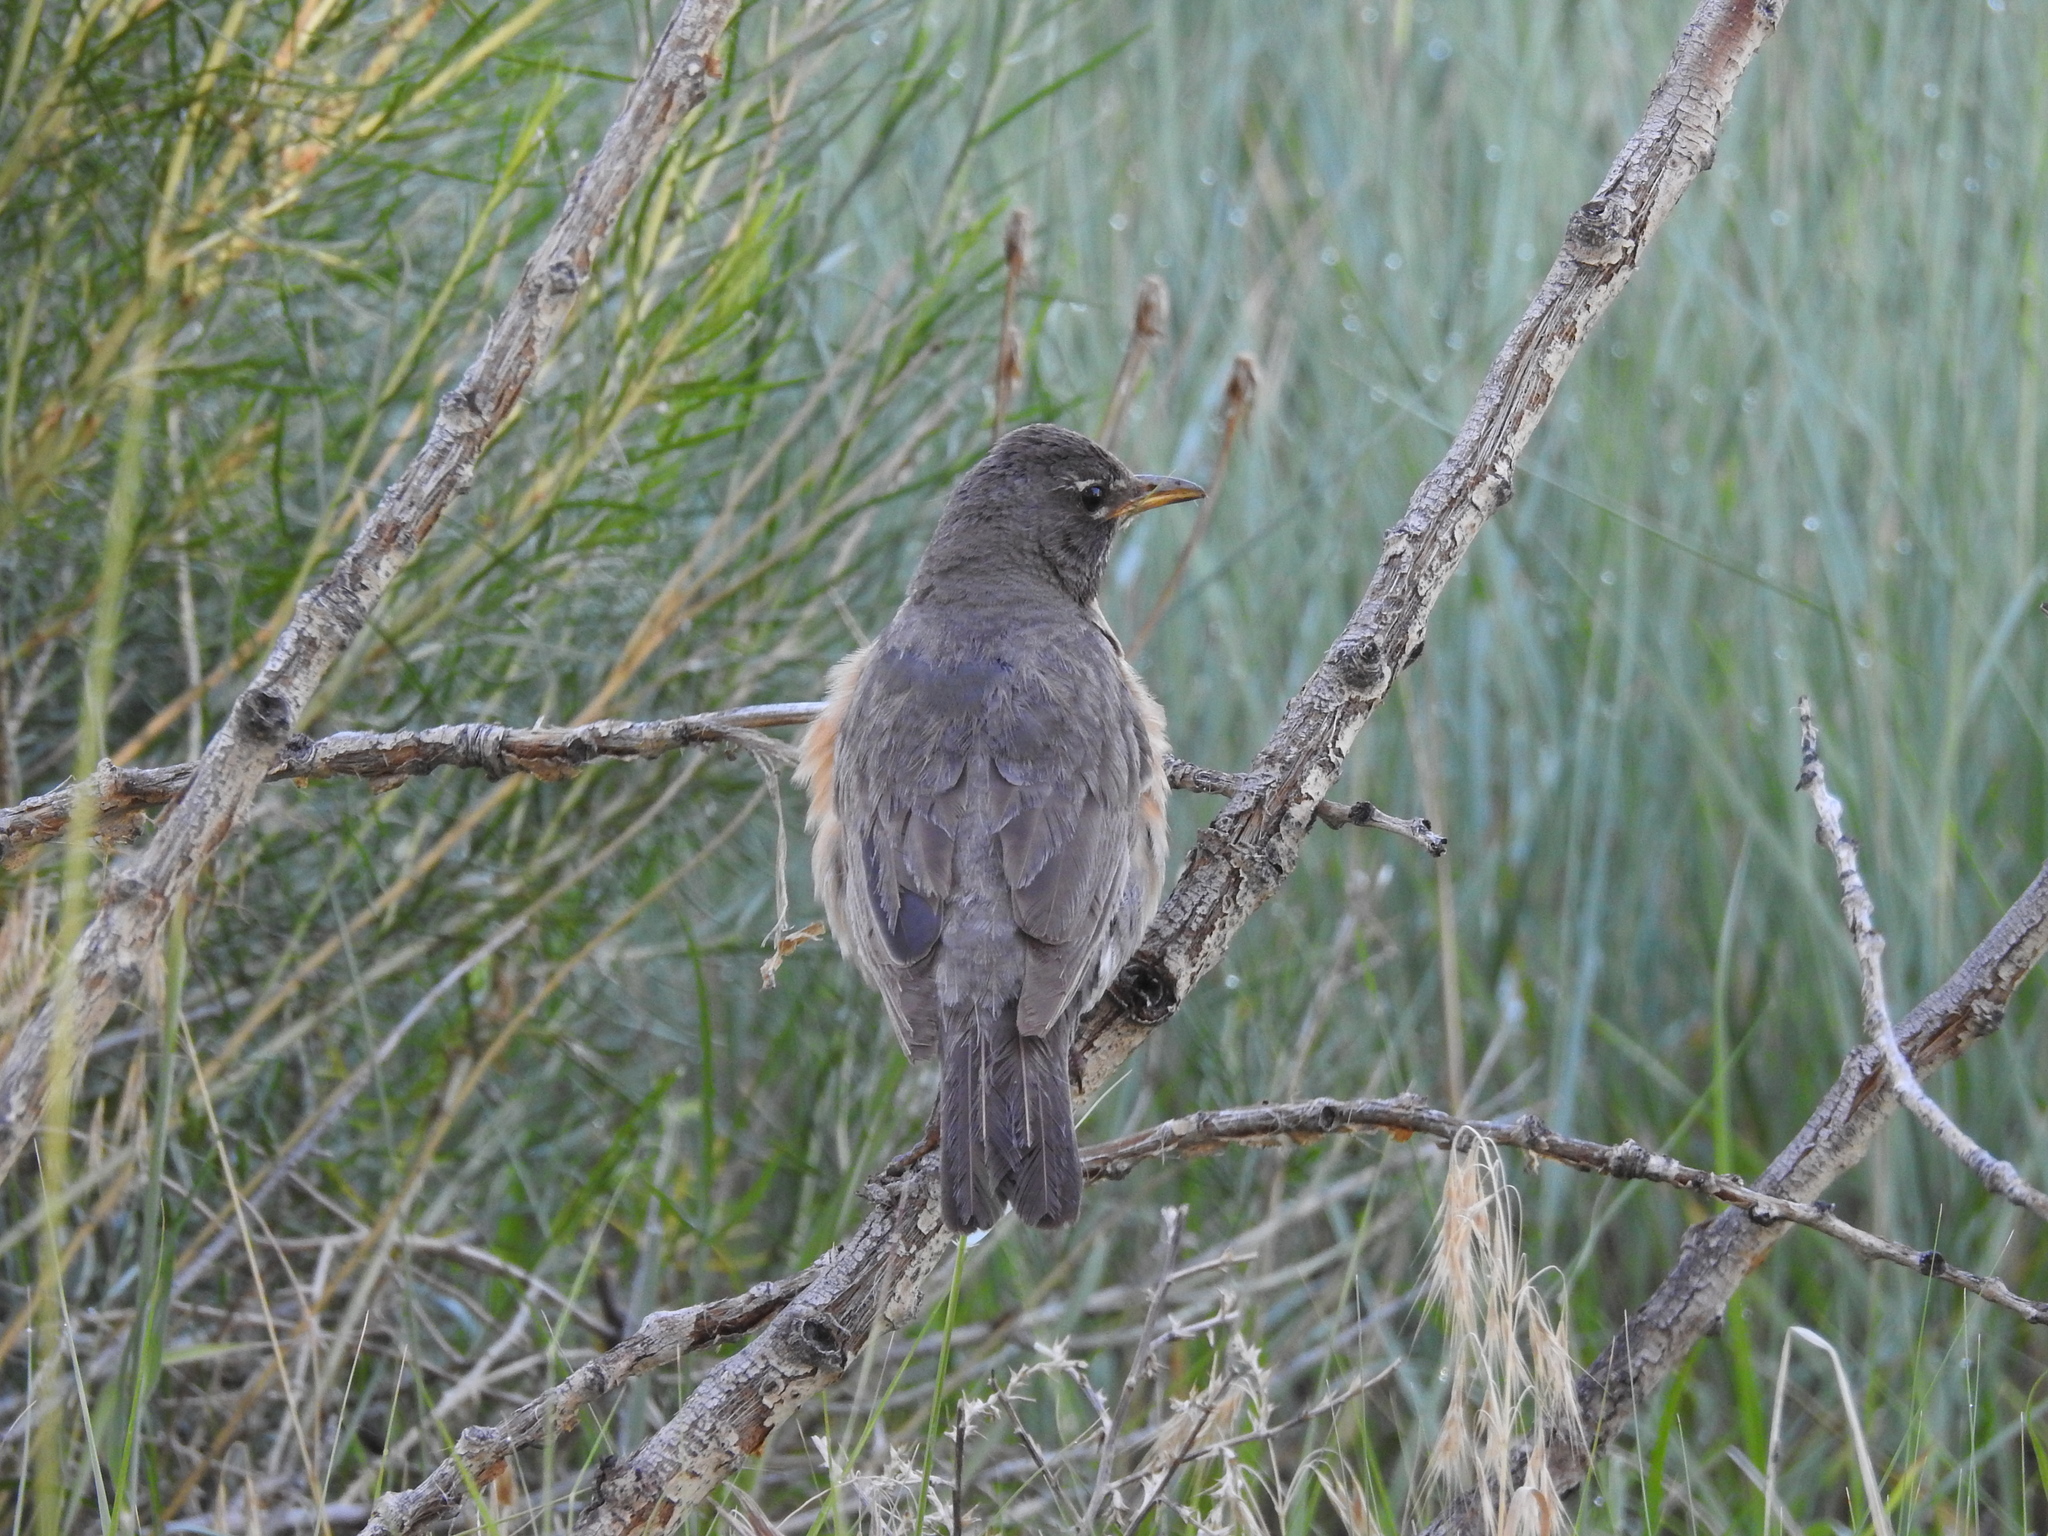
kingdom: Animalia
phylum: Chordata
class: Aves
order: Passeriformes
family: Turdidae
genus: Turdus
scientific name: Turdus migratorius
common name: American robin
